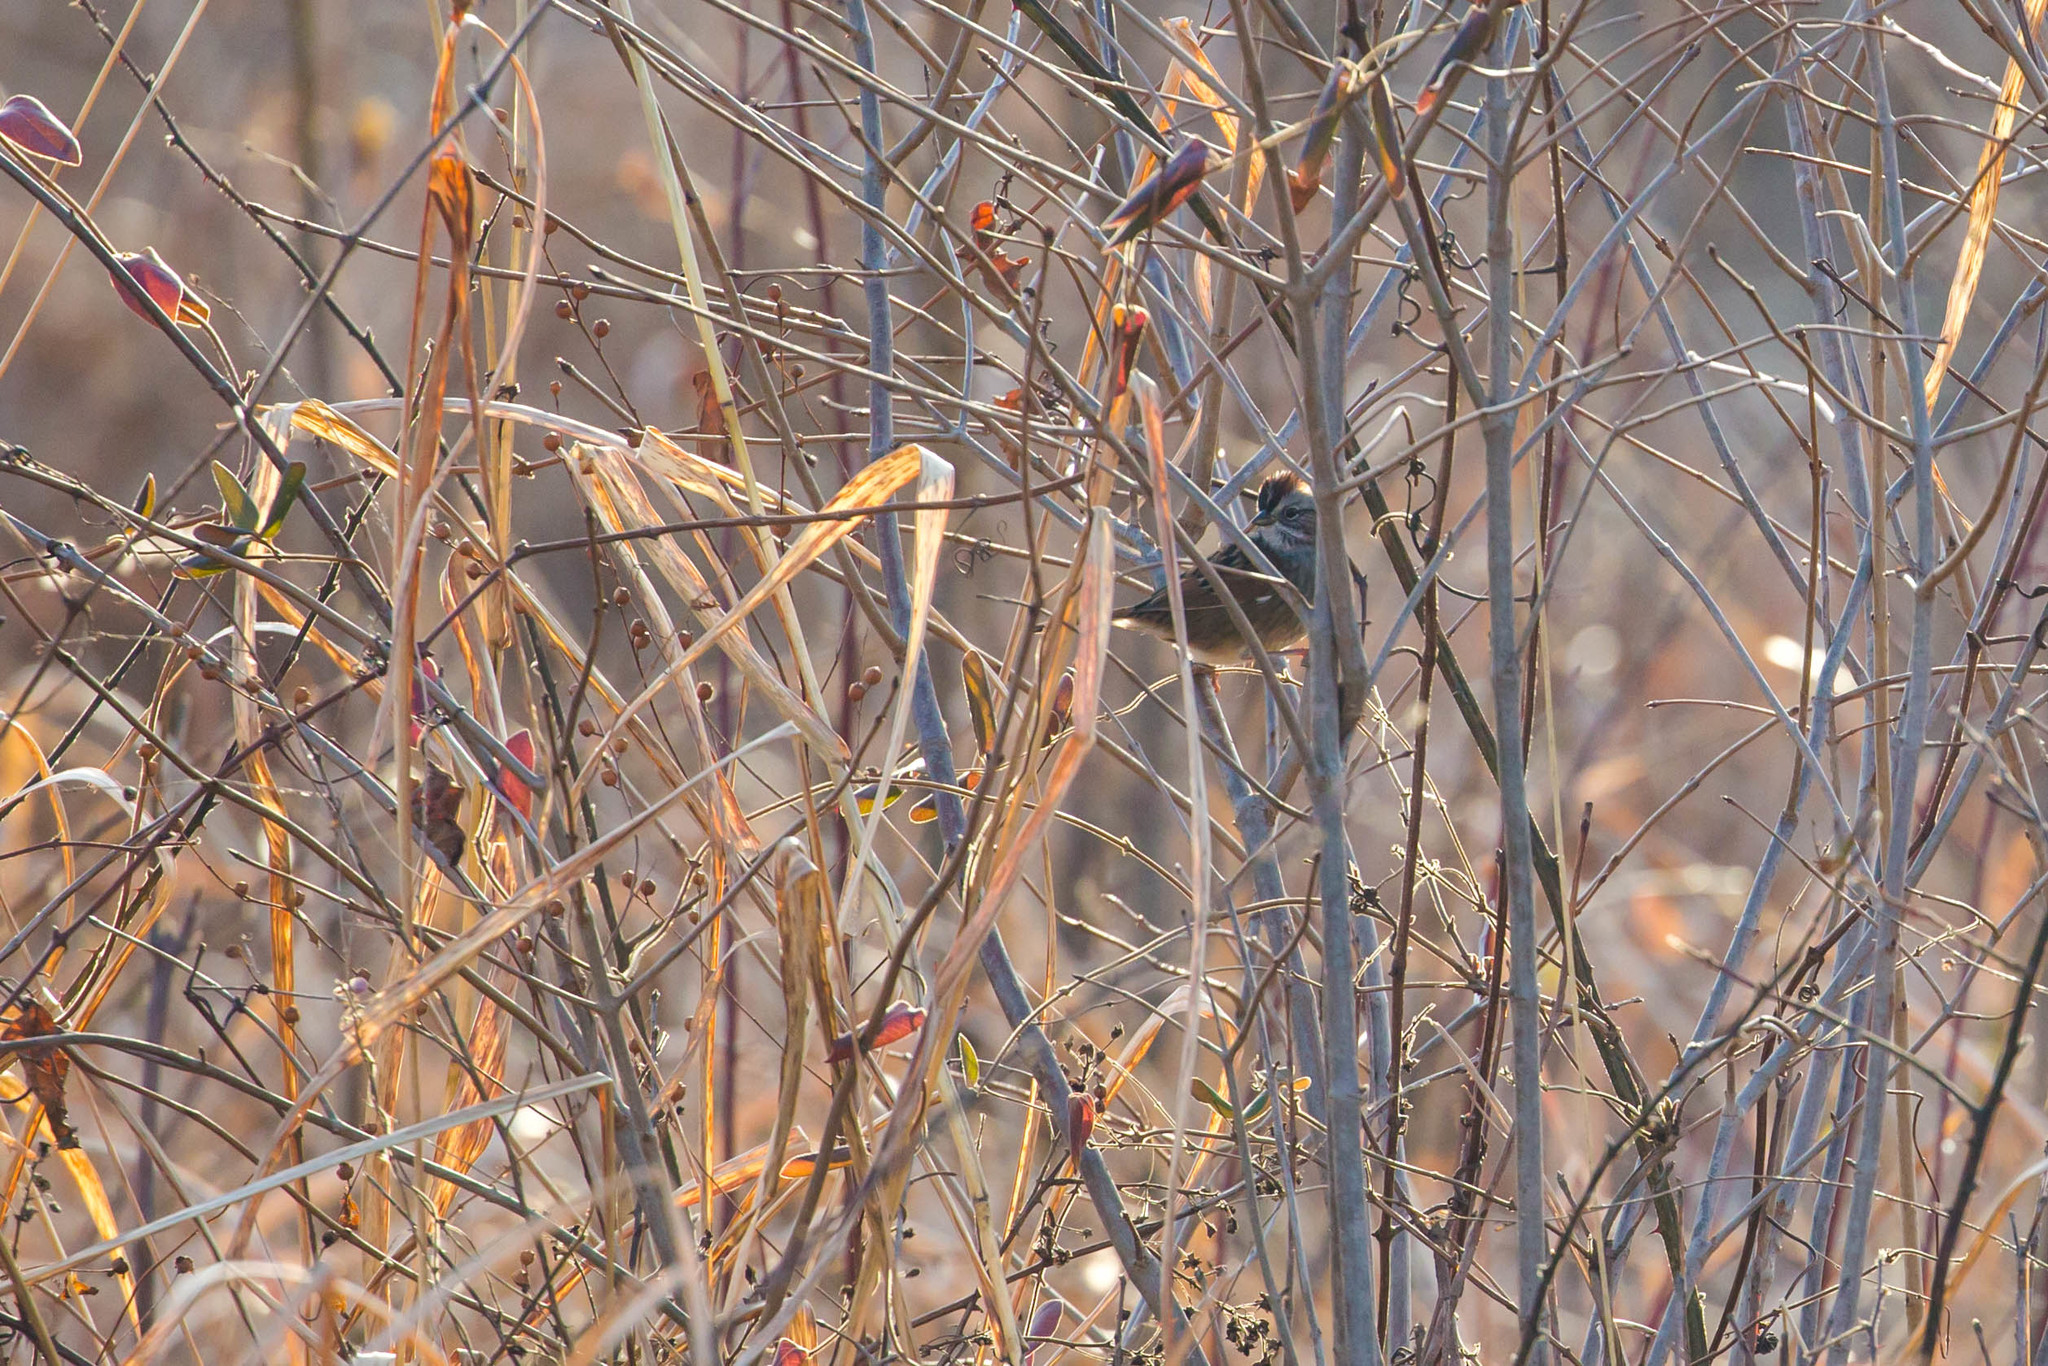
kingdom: Animalia
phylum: Chordata
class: Aves
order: Passeriformes
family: Passerellidae
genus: Melospiza
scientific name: Melospiza georgiana
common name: Swamp sparrow
